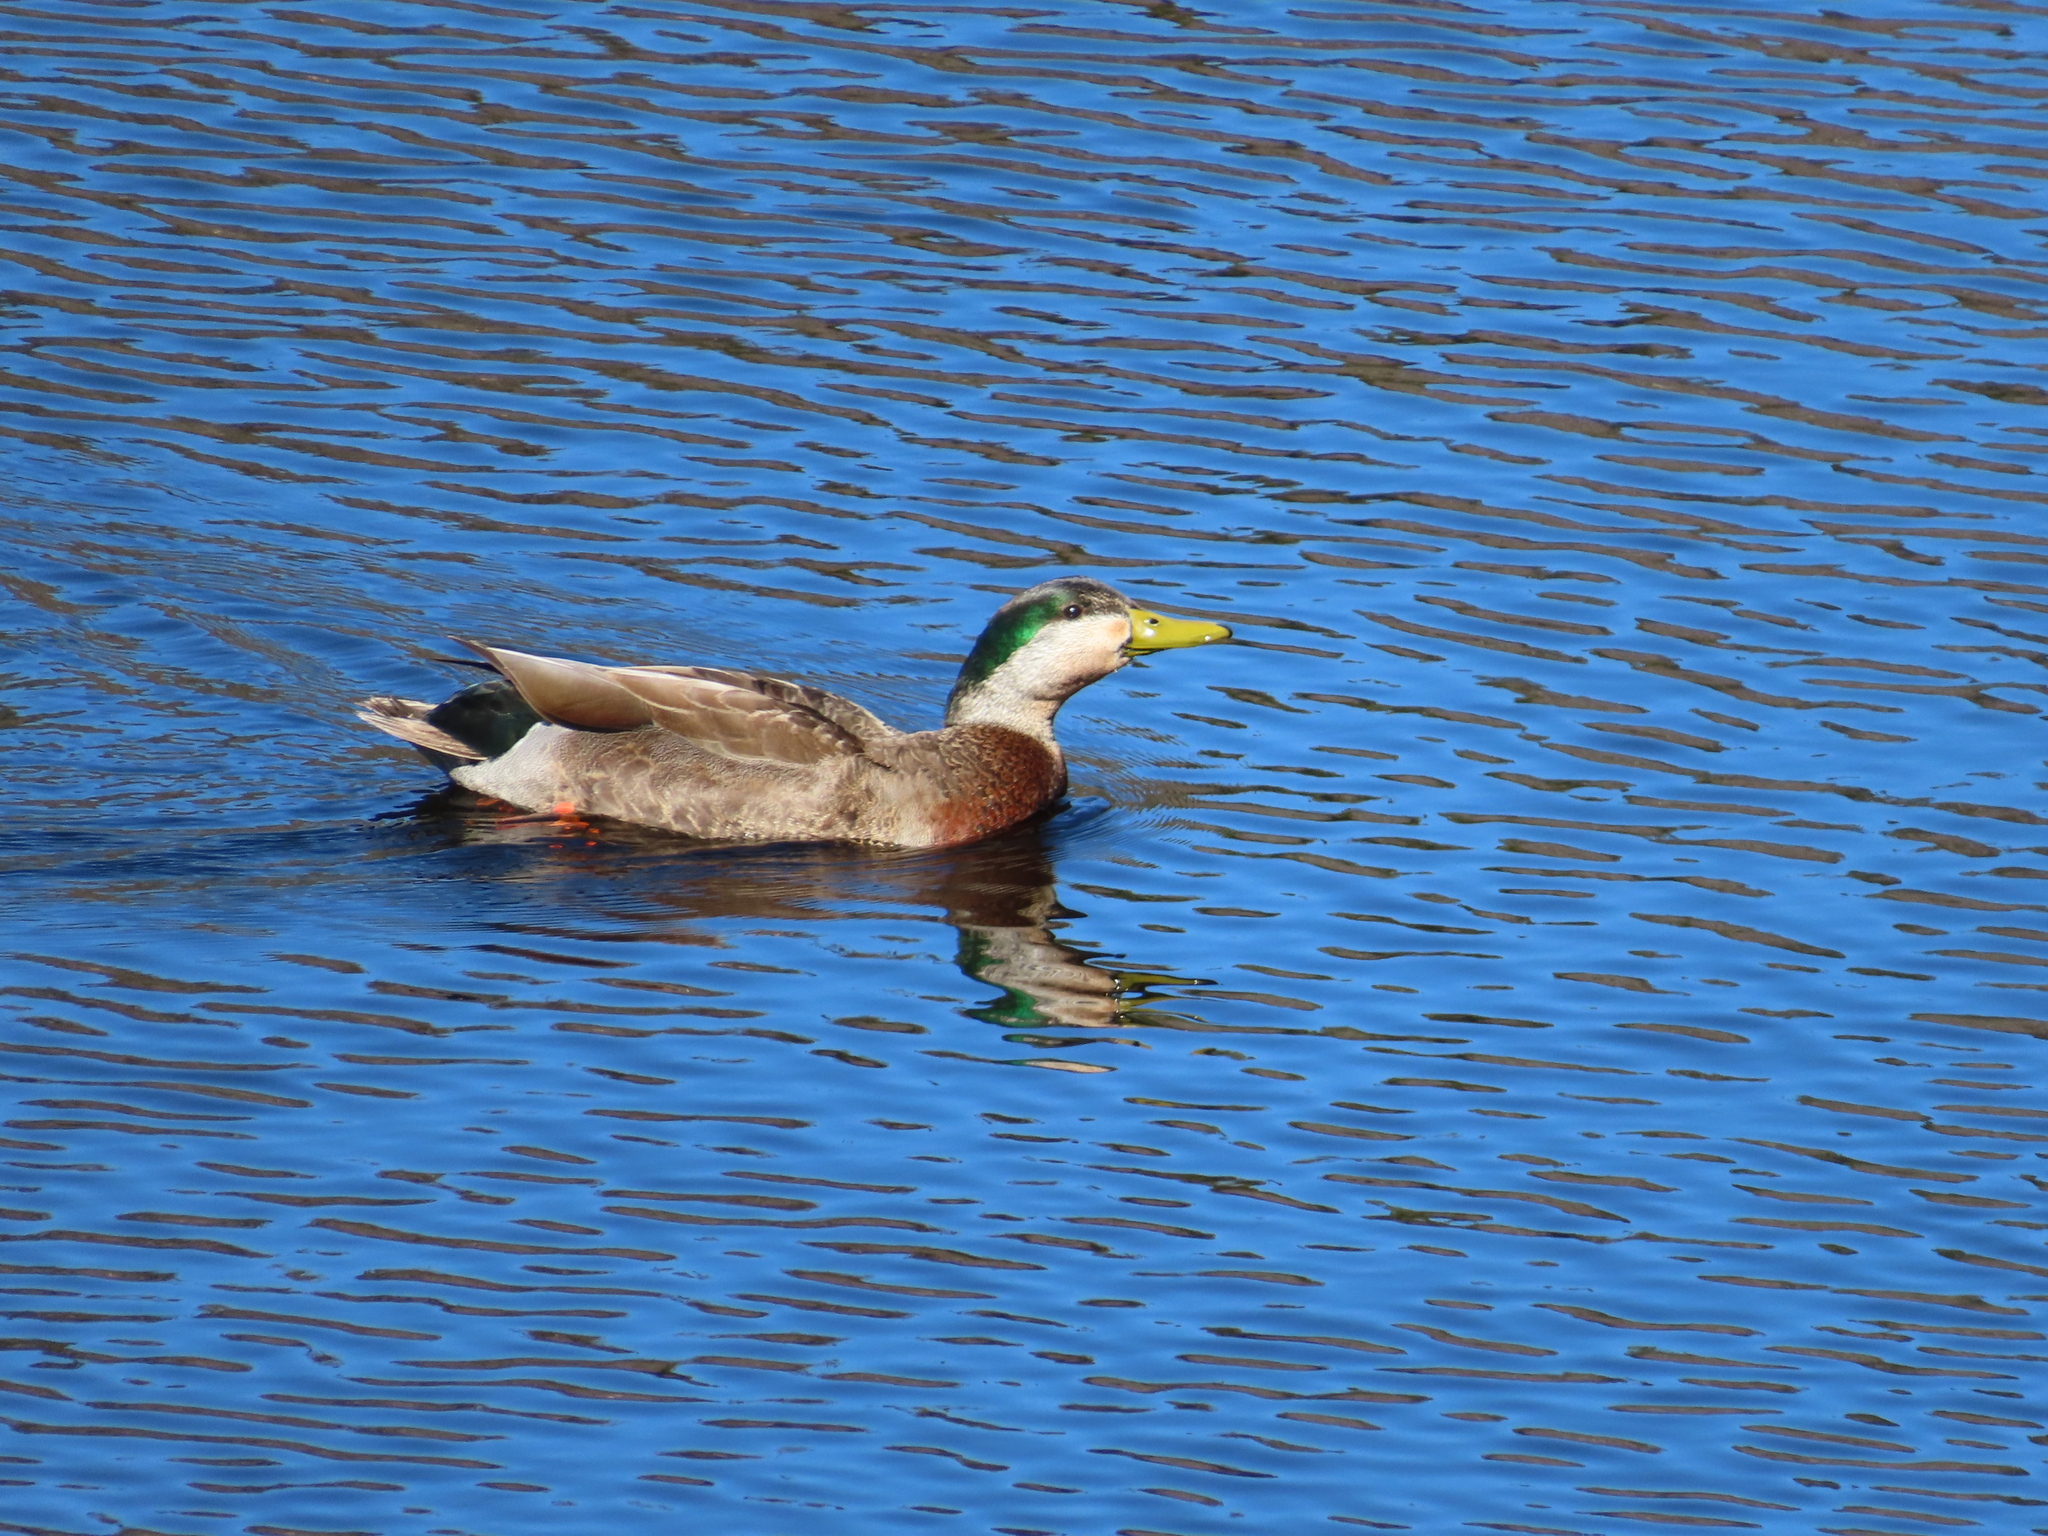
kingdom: Animalia
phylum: Chordata
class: Aves
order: Anseriformes
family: Anatidae
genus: Anas
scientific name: Anas
